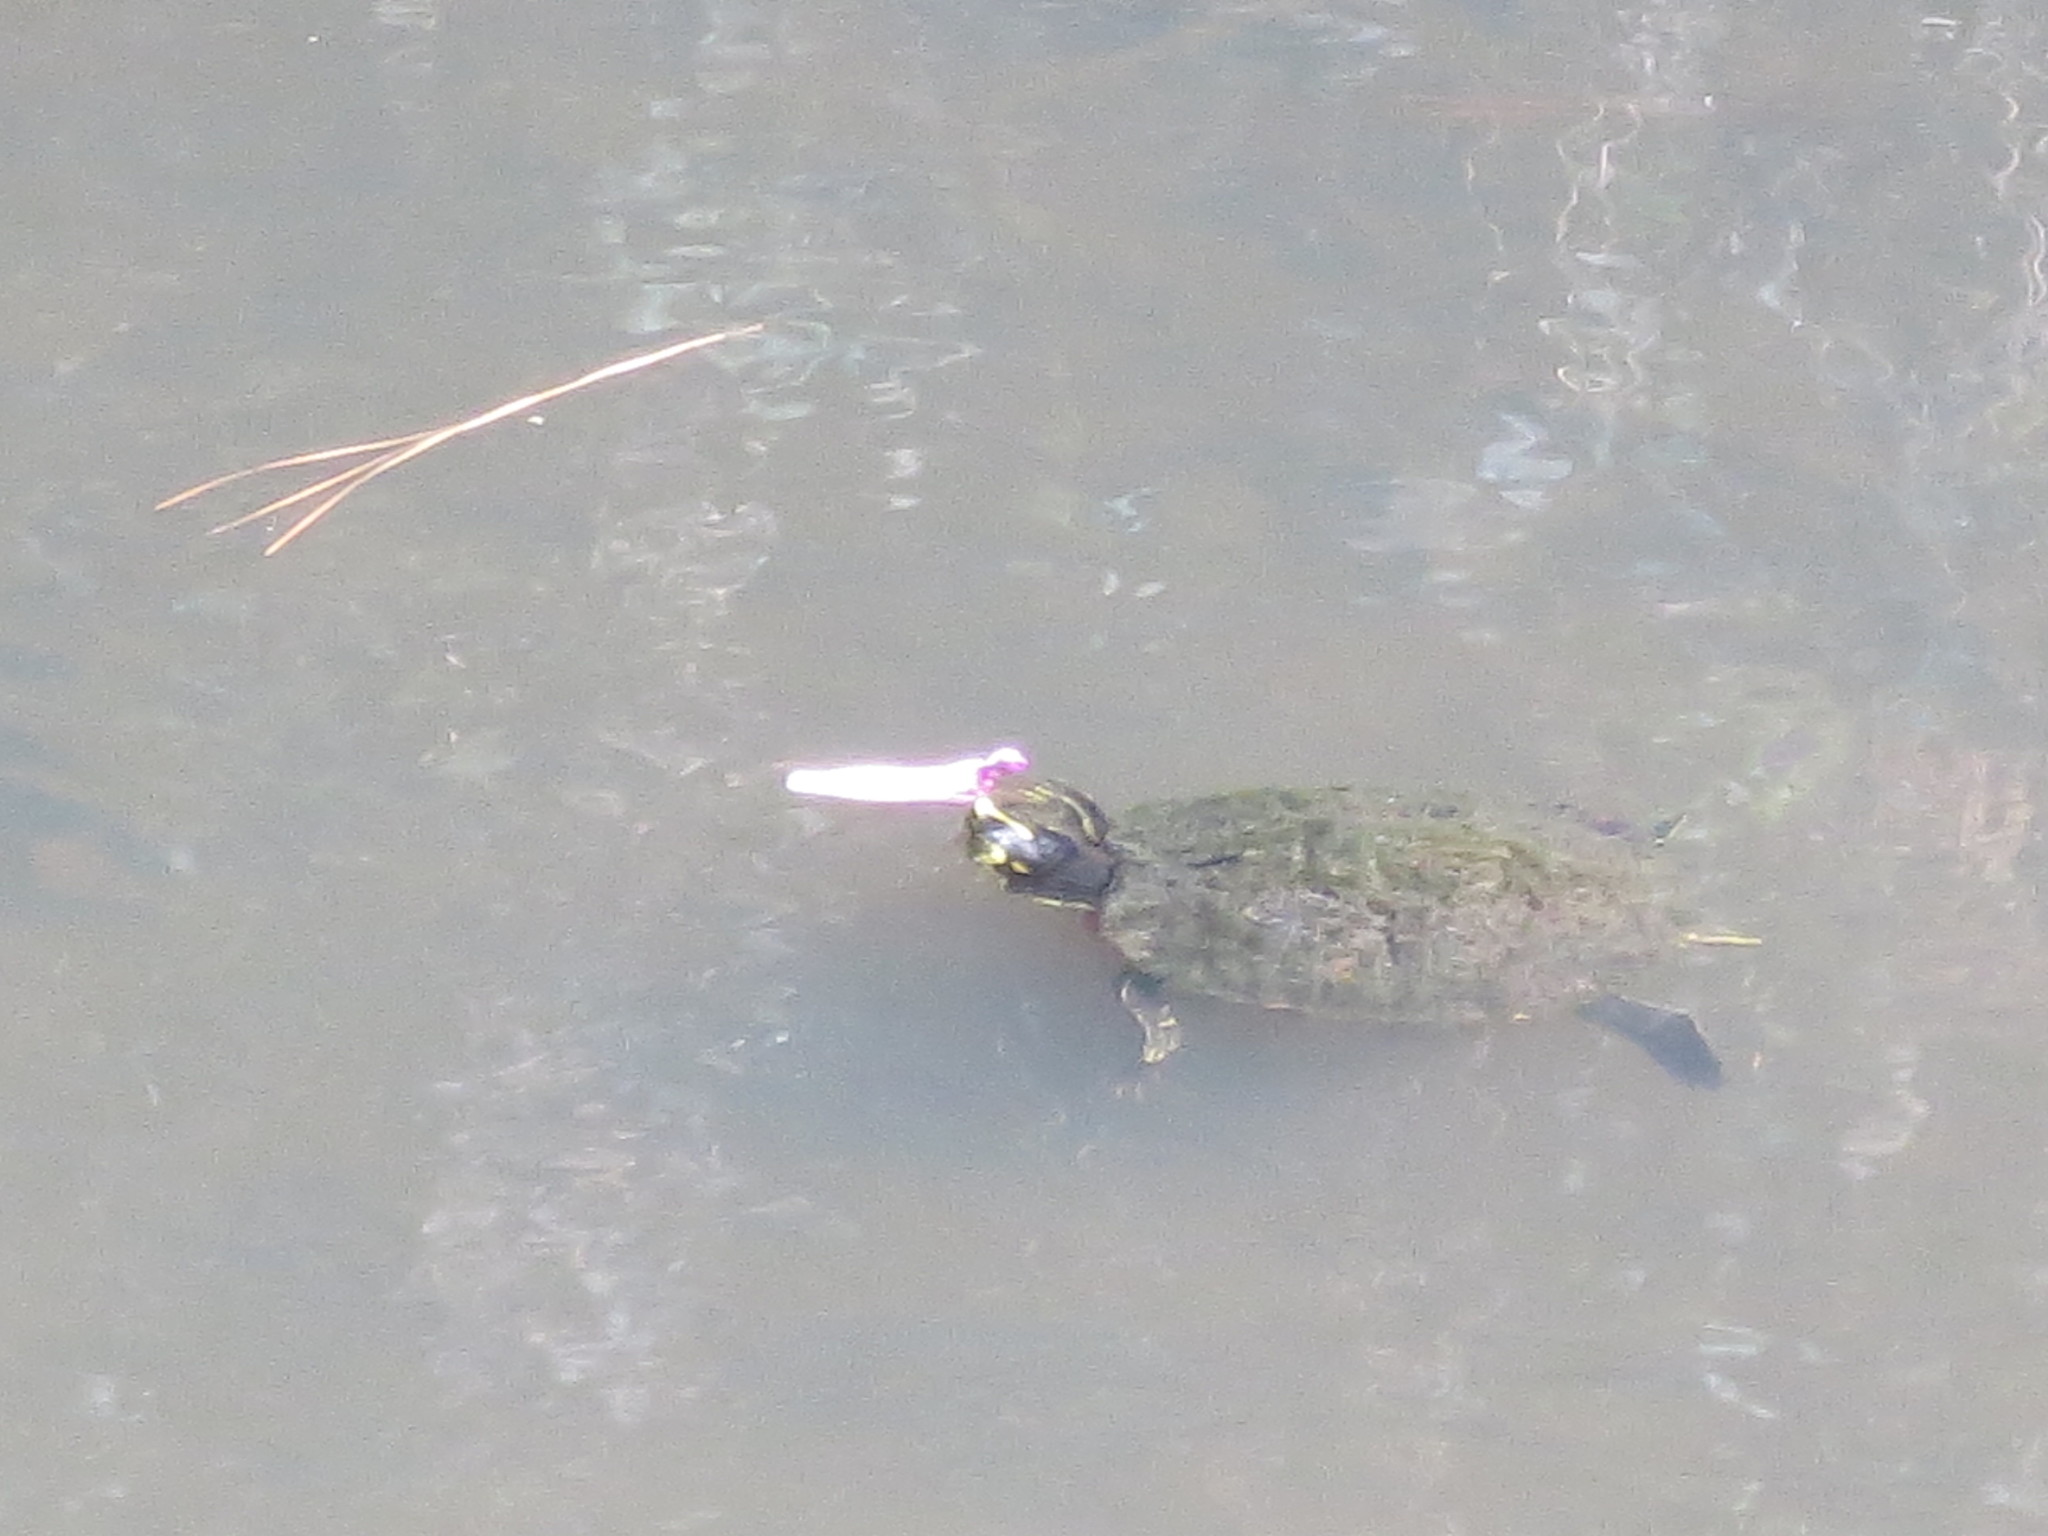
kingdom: Animalia
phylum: Chordata
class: Testudines
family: Emydidae
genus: Trachemys
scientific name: Trachemys scripta
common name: Slider
